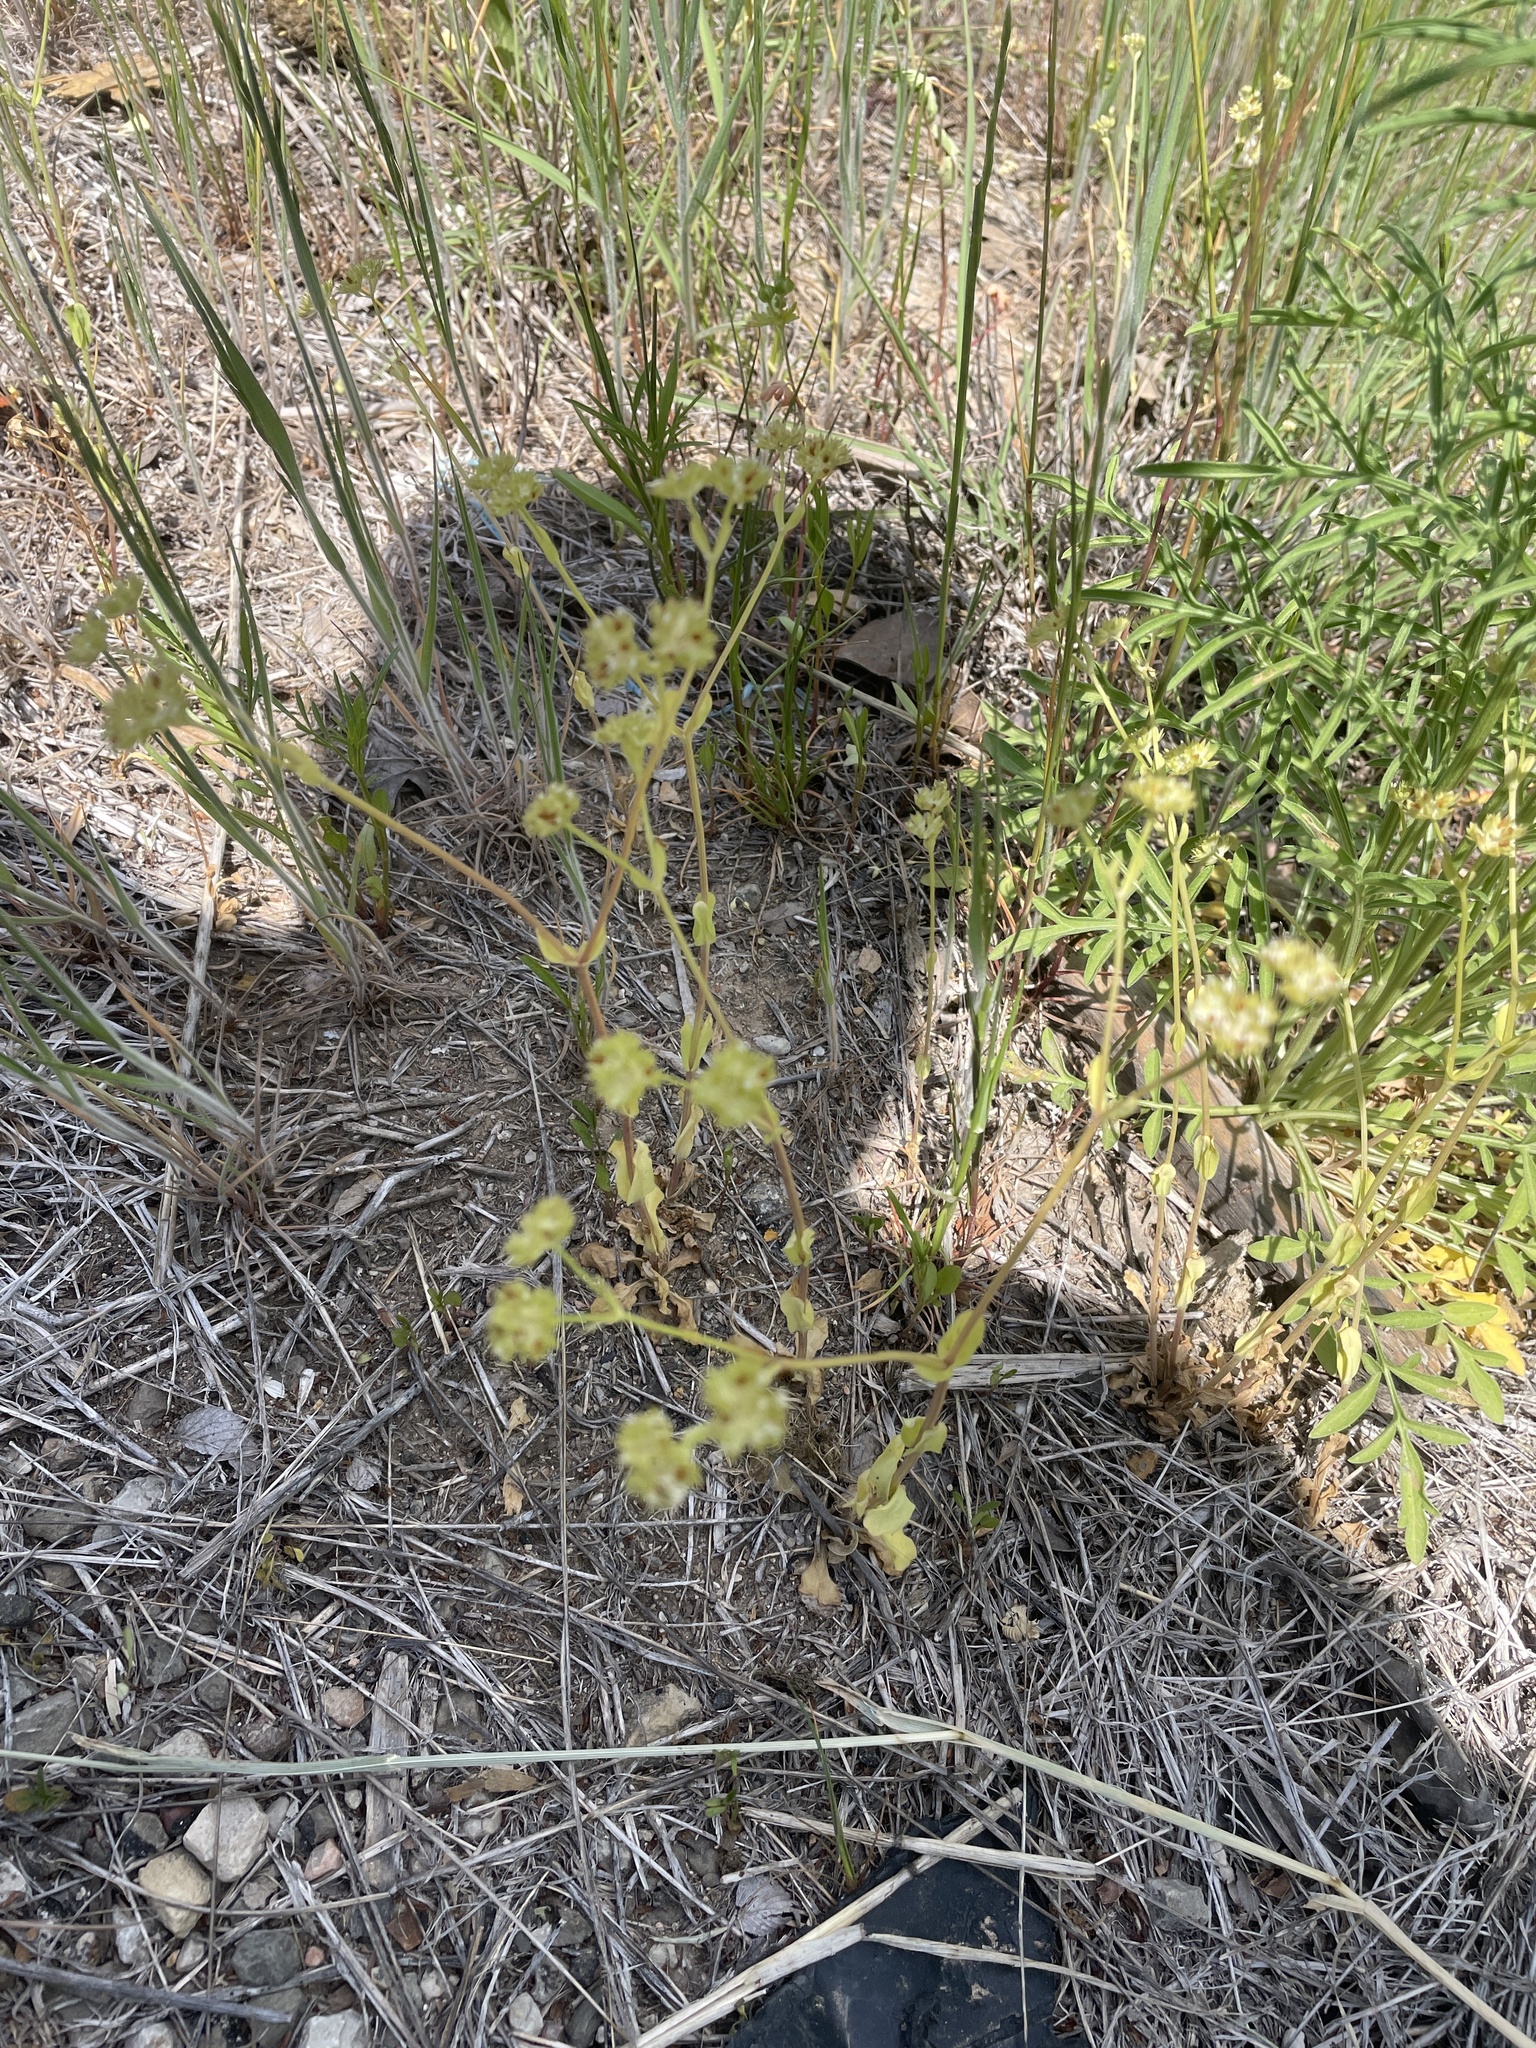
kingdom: Plantae
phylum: Tracheophyta
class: Magnoliopsida
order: Dipsacales
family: Caprifoliaceae
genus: Valerianella
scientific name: Valerianella radiata
